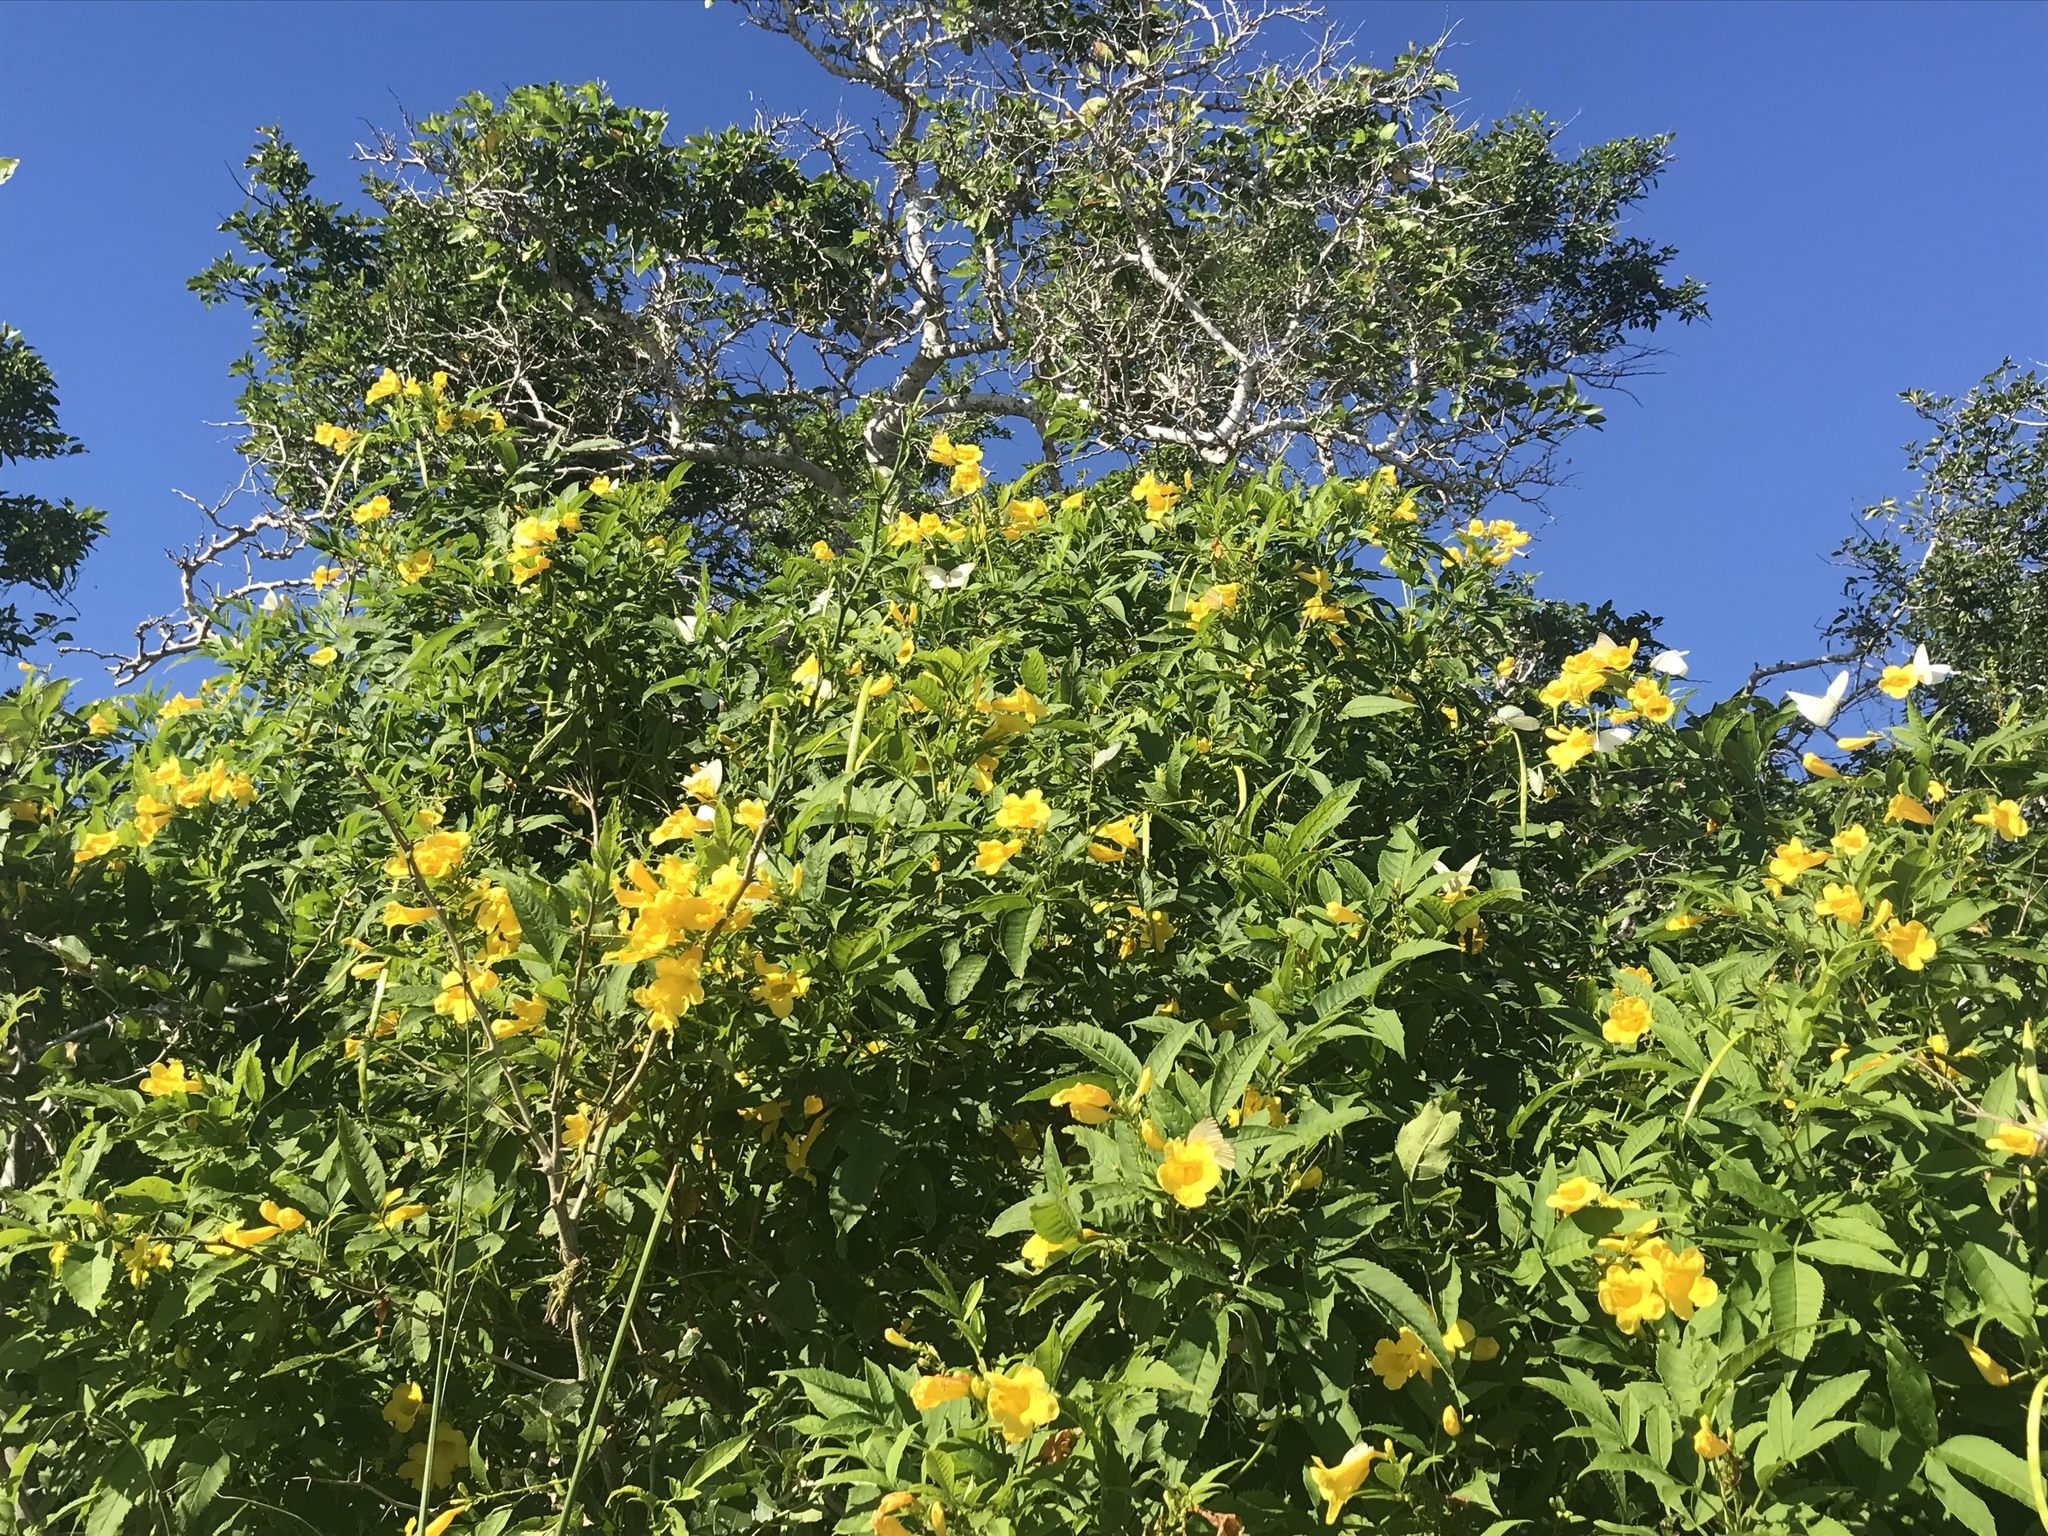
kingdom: Plantae
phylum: Tracheophyta
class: Magnoliopsida
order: Lamiales
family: Bignoniaceae
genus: Tecoma
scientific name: Tecoma stans
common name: Yellow trumpetbush
